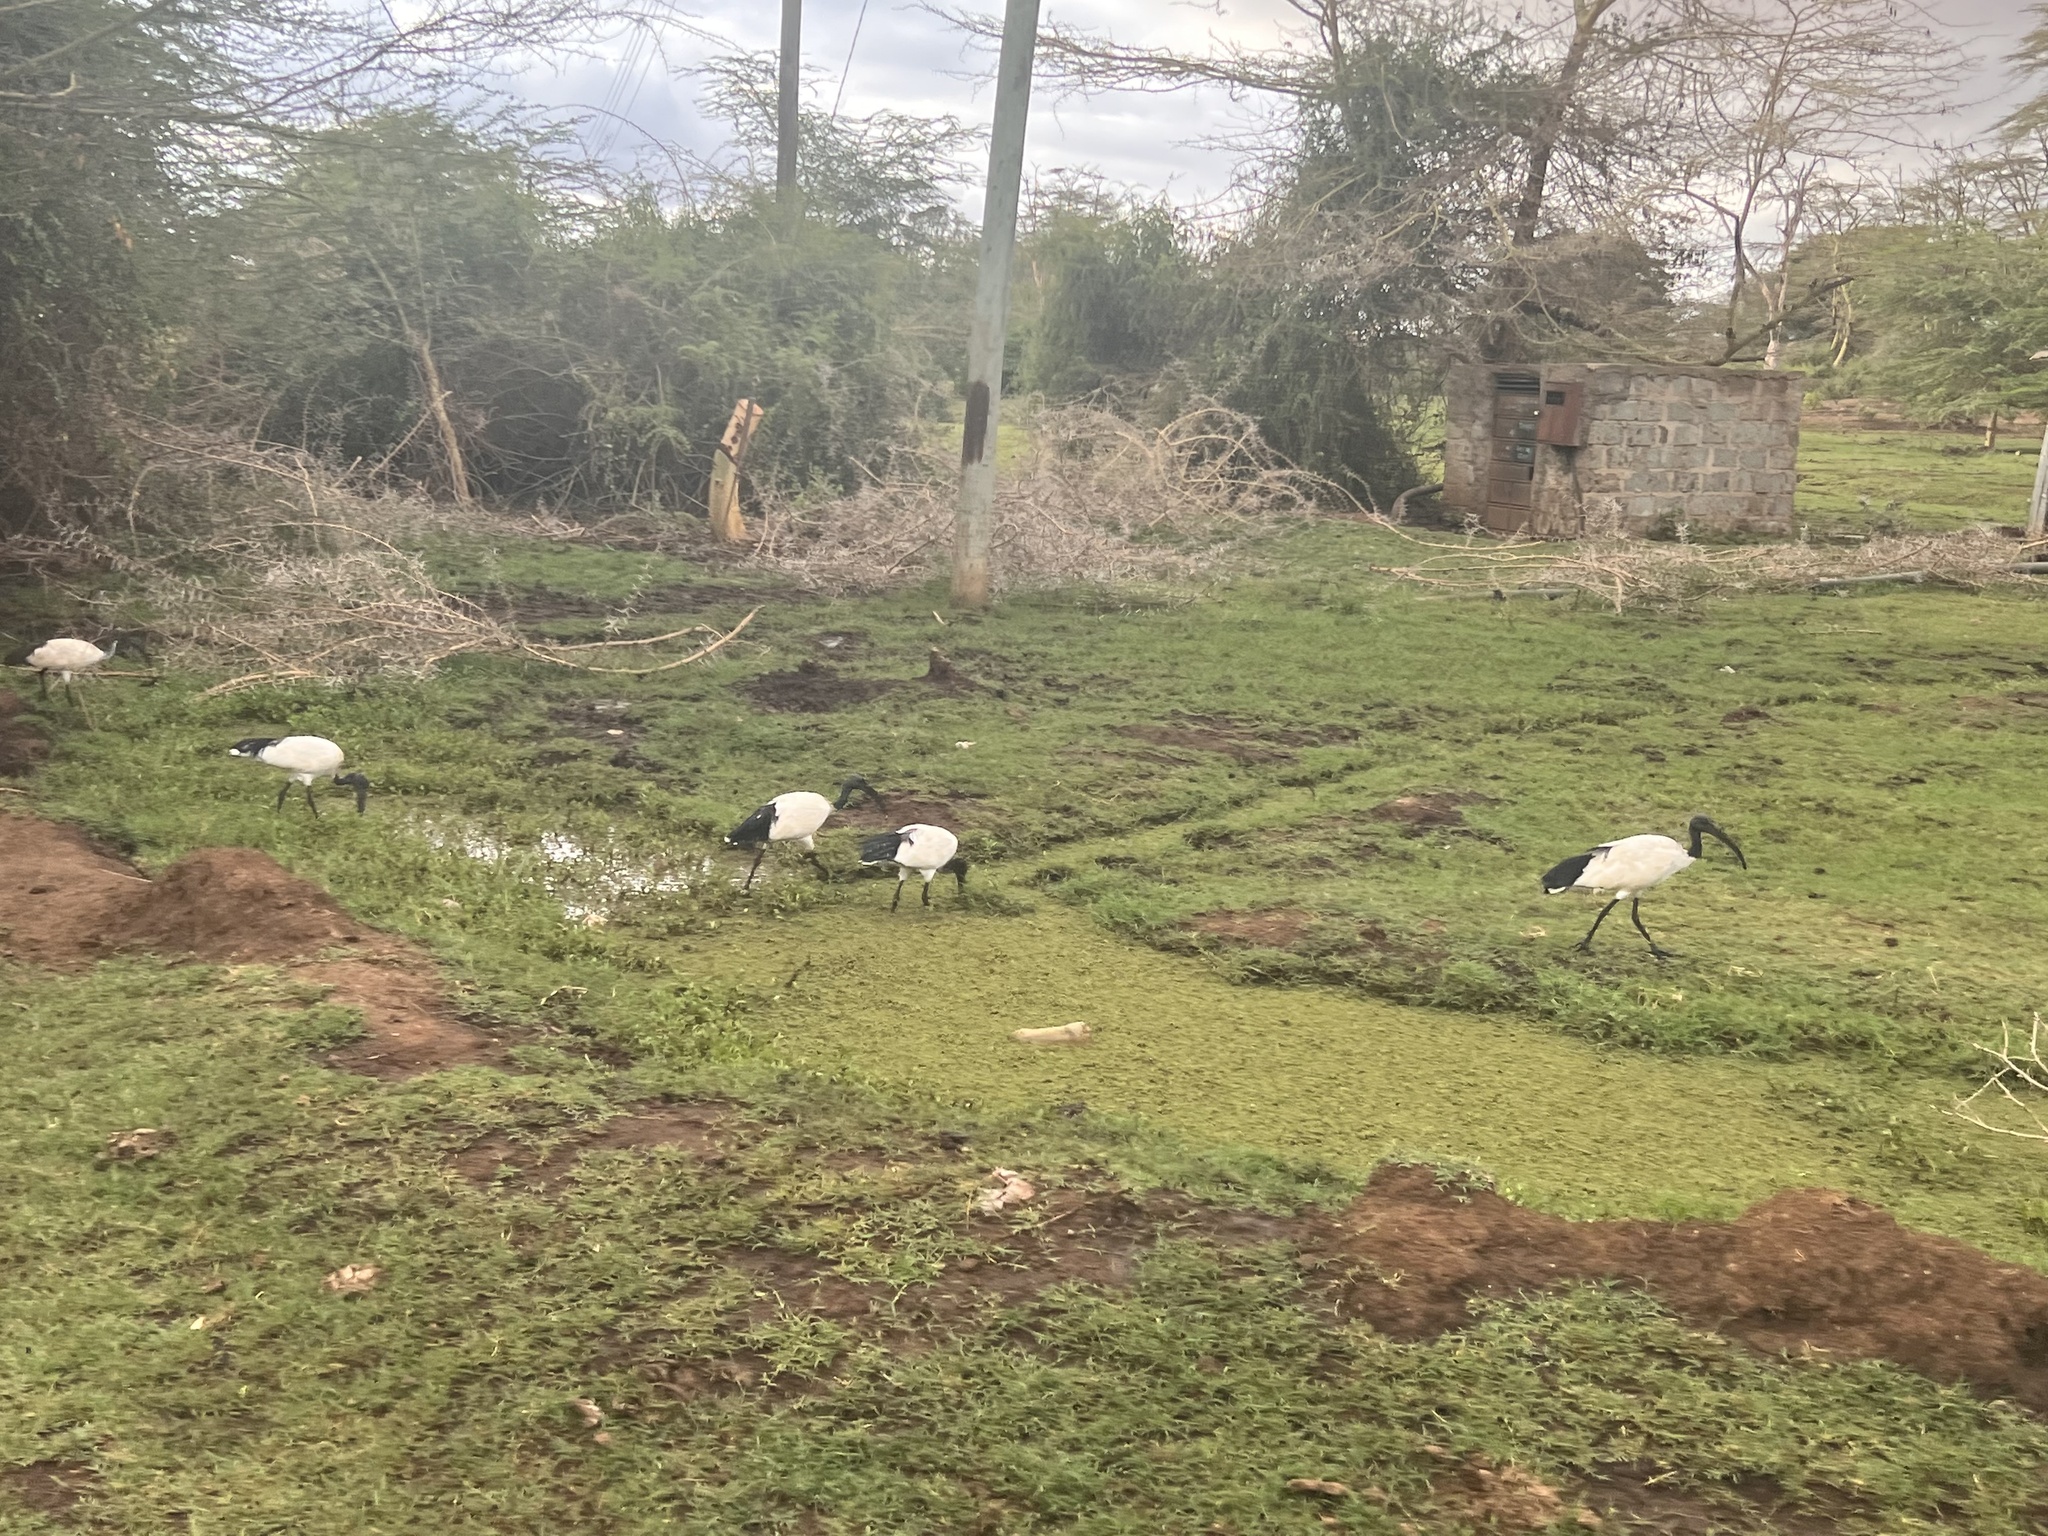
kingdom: Animalia
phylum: Chordata
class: Aves
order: Pelecaniformes
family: Threskiornithidae
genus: Threskiornis
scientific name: Threskiornis aethiopicus
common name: Sacred ibis
